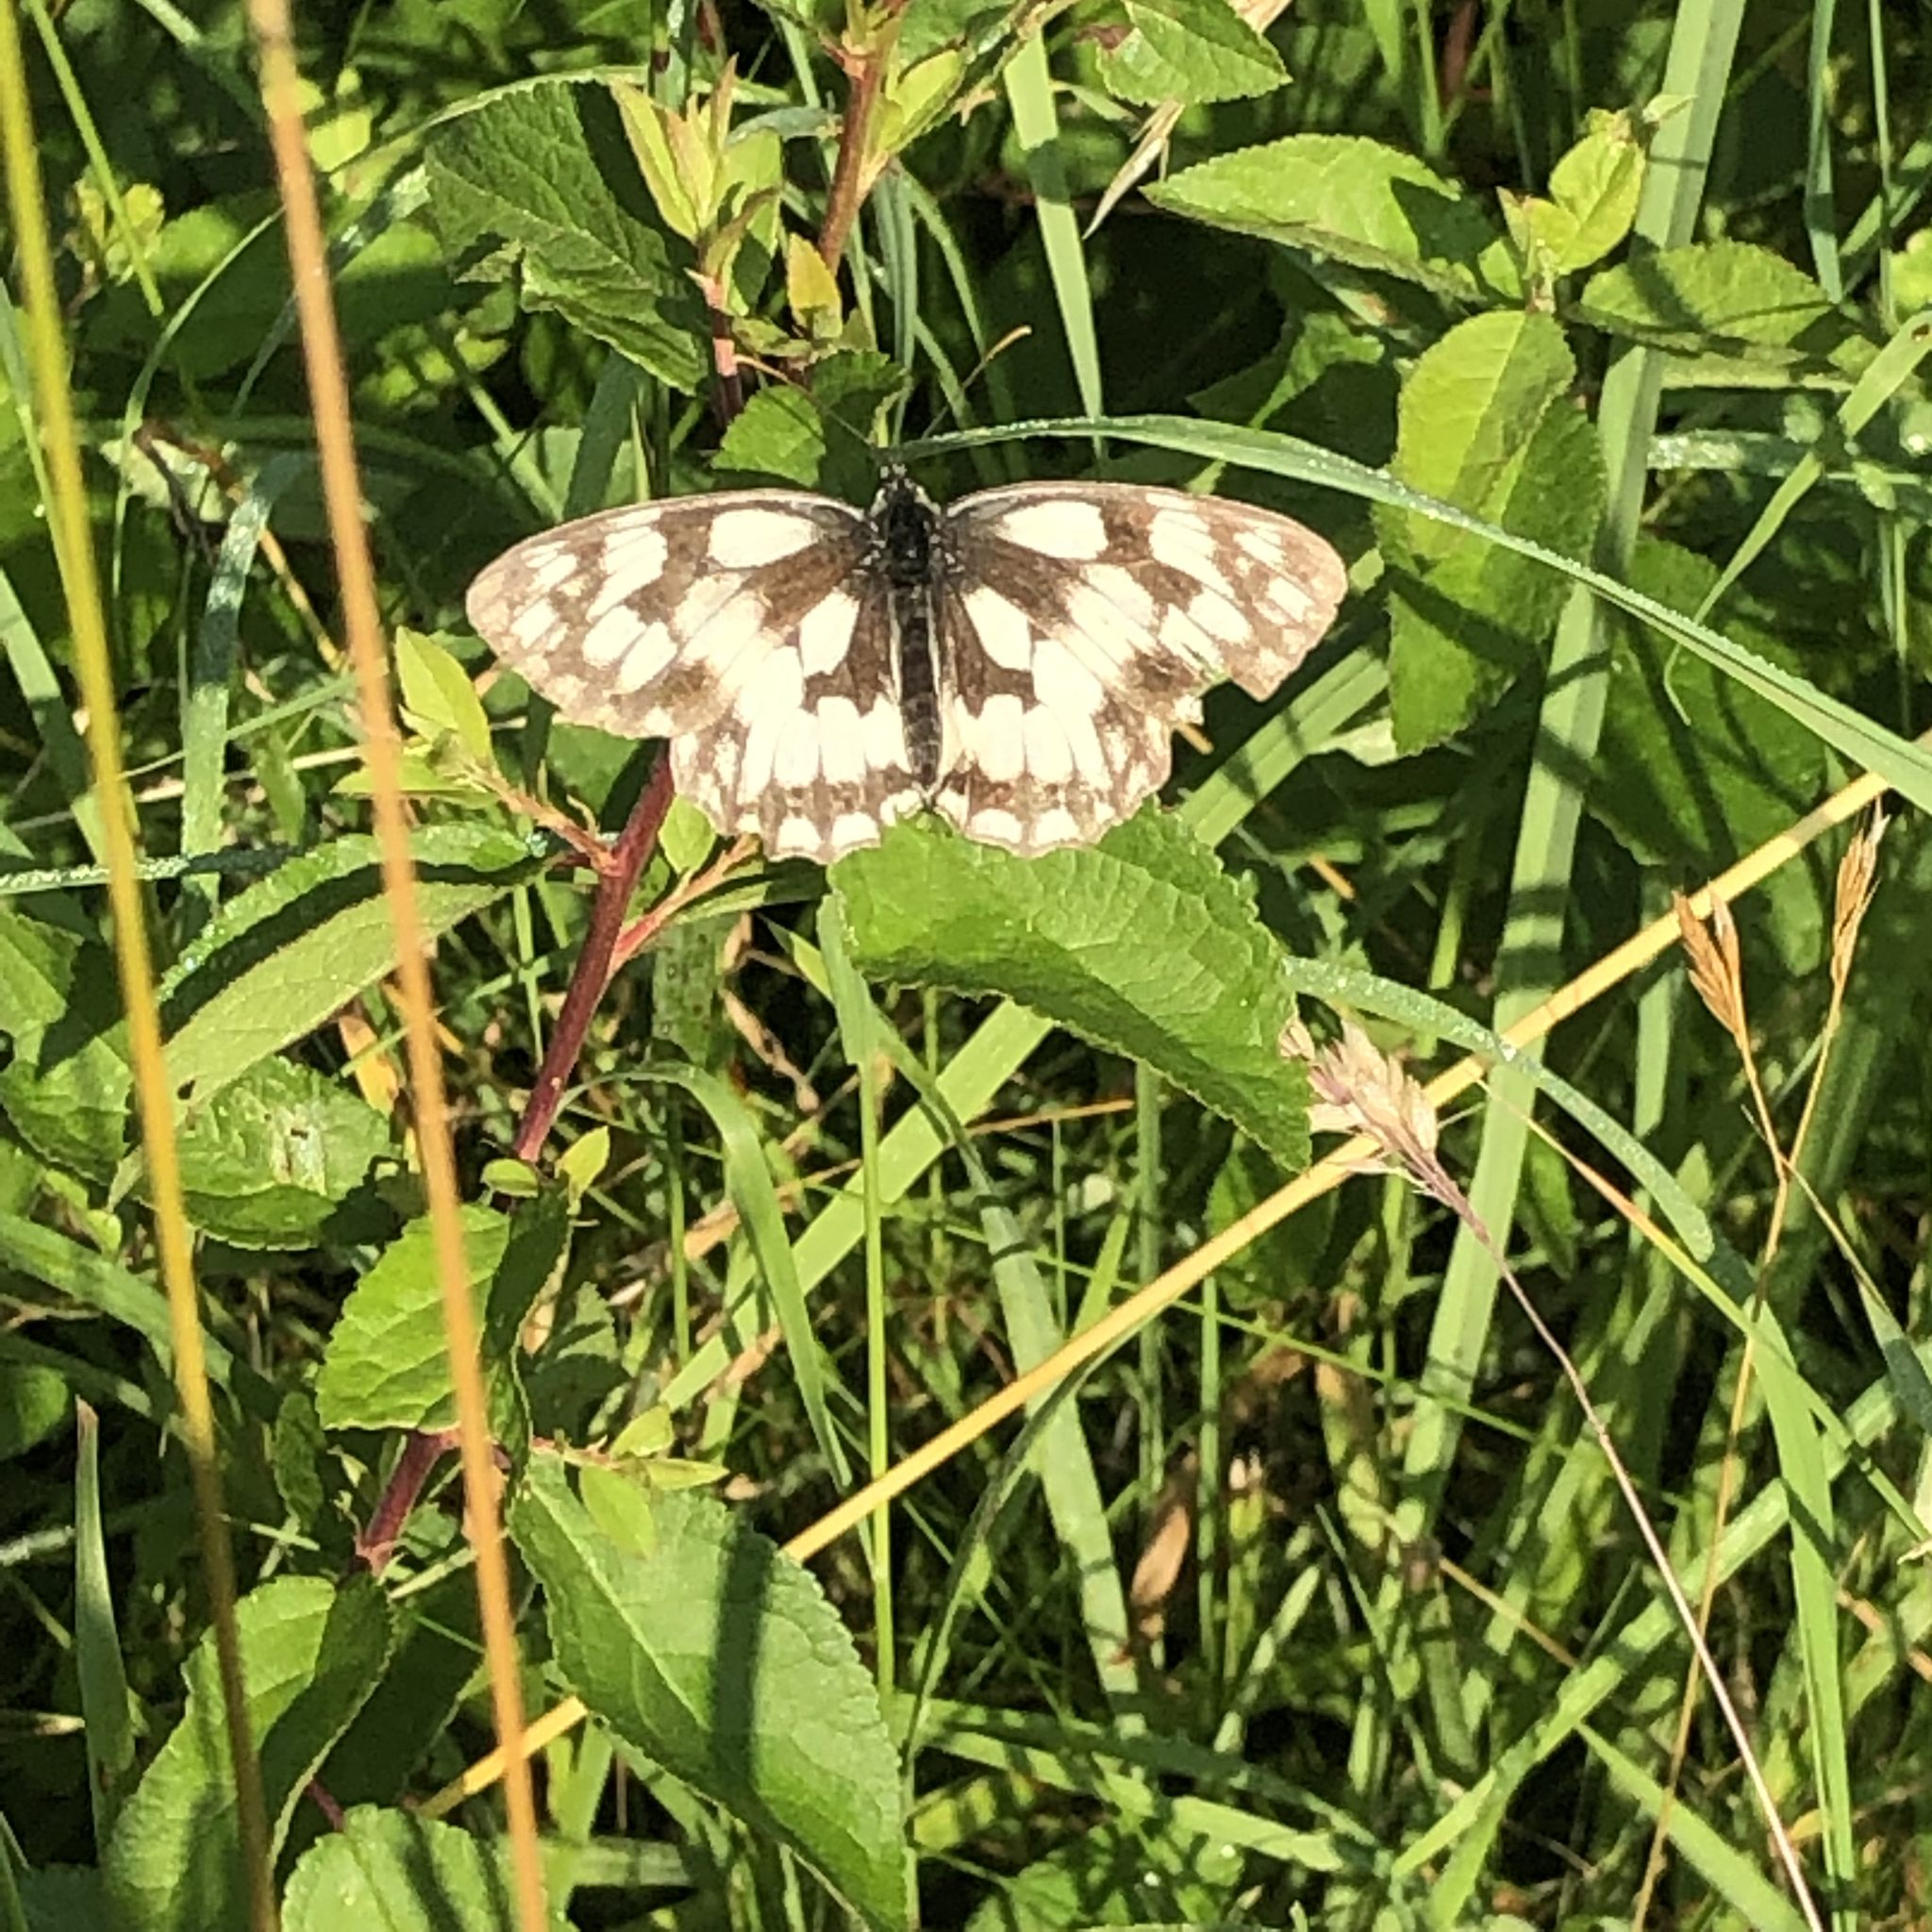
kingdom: Animalia
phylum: Arthropoda
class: Insecta
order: Lepidoptera
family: Nymphalidae
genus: Melanargia
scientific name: Melanargia galathea
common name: Marbled white
